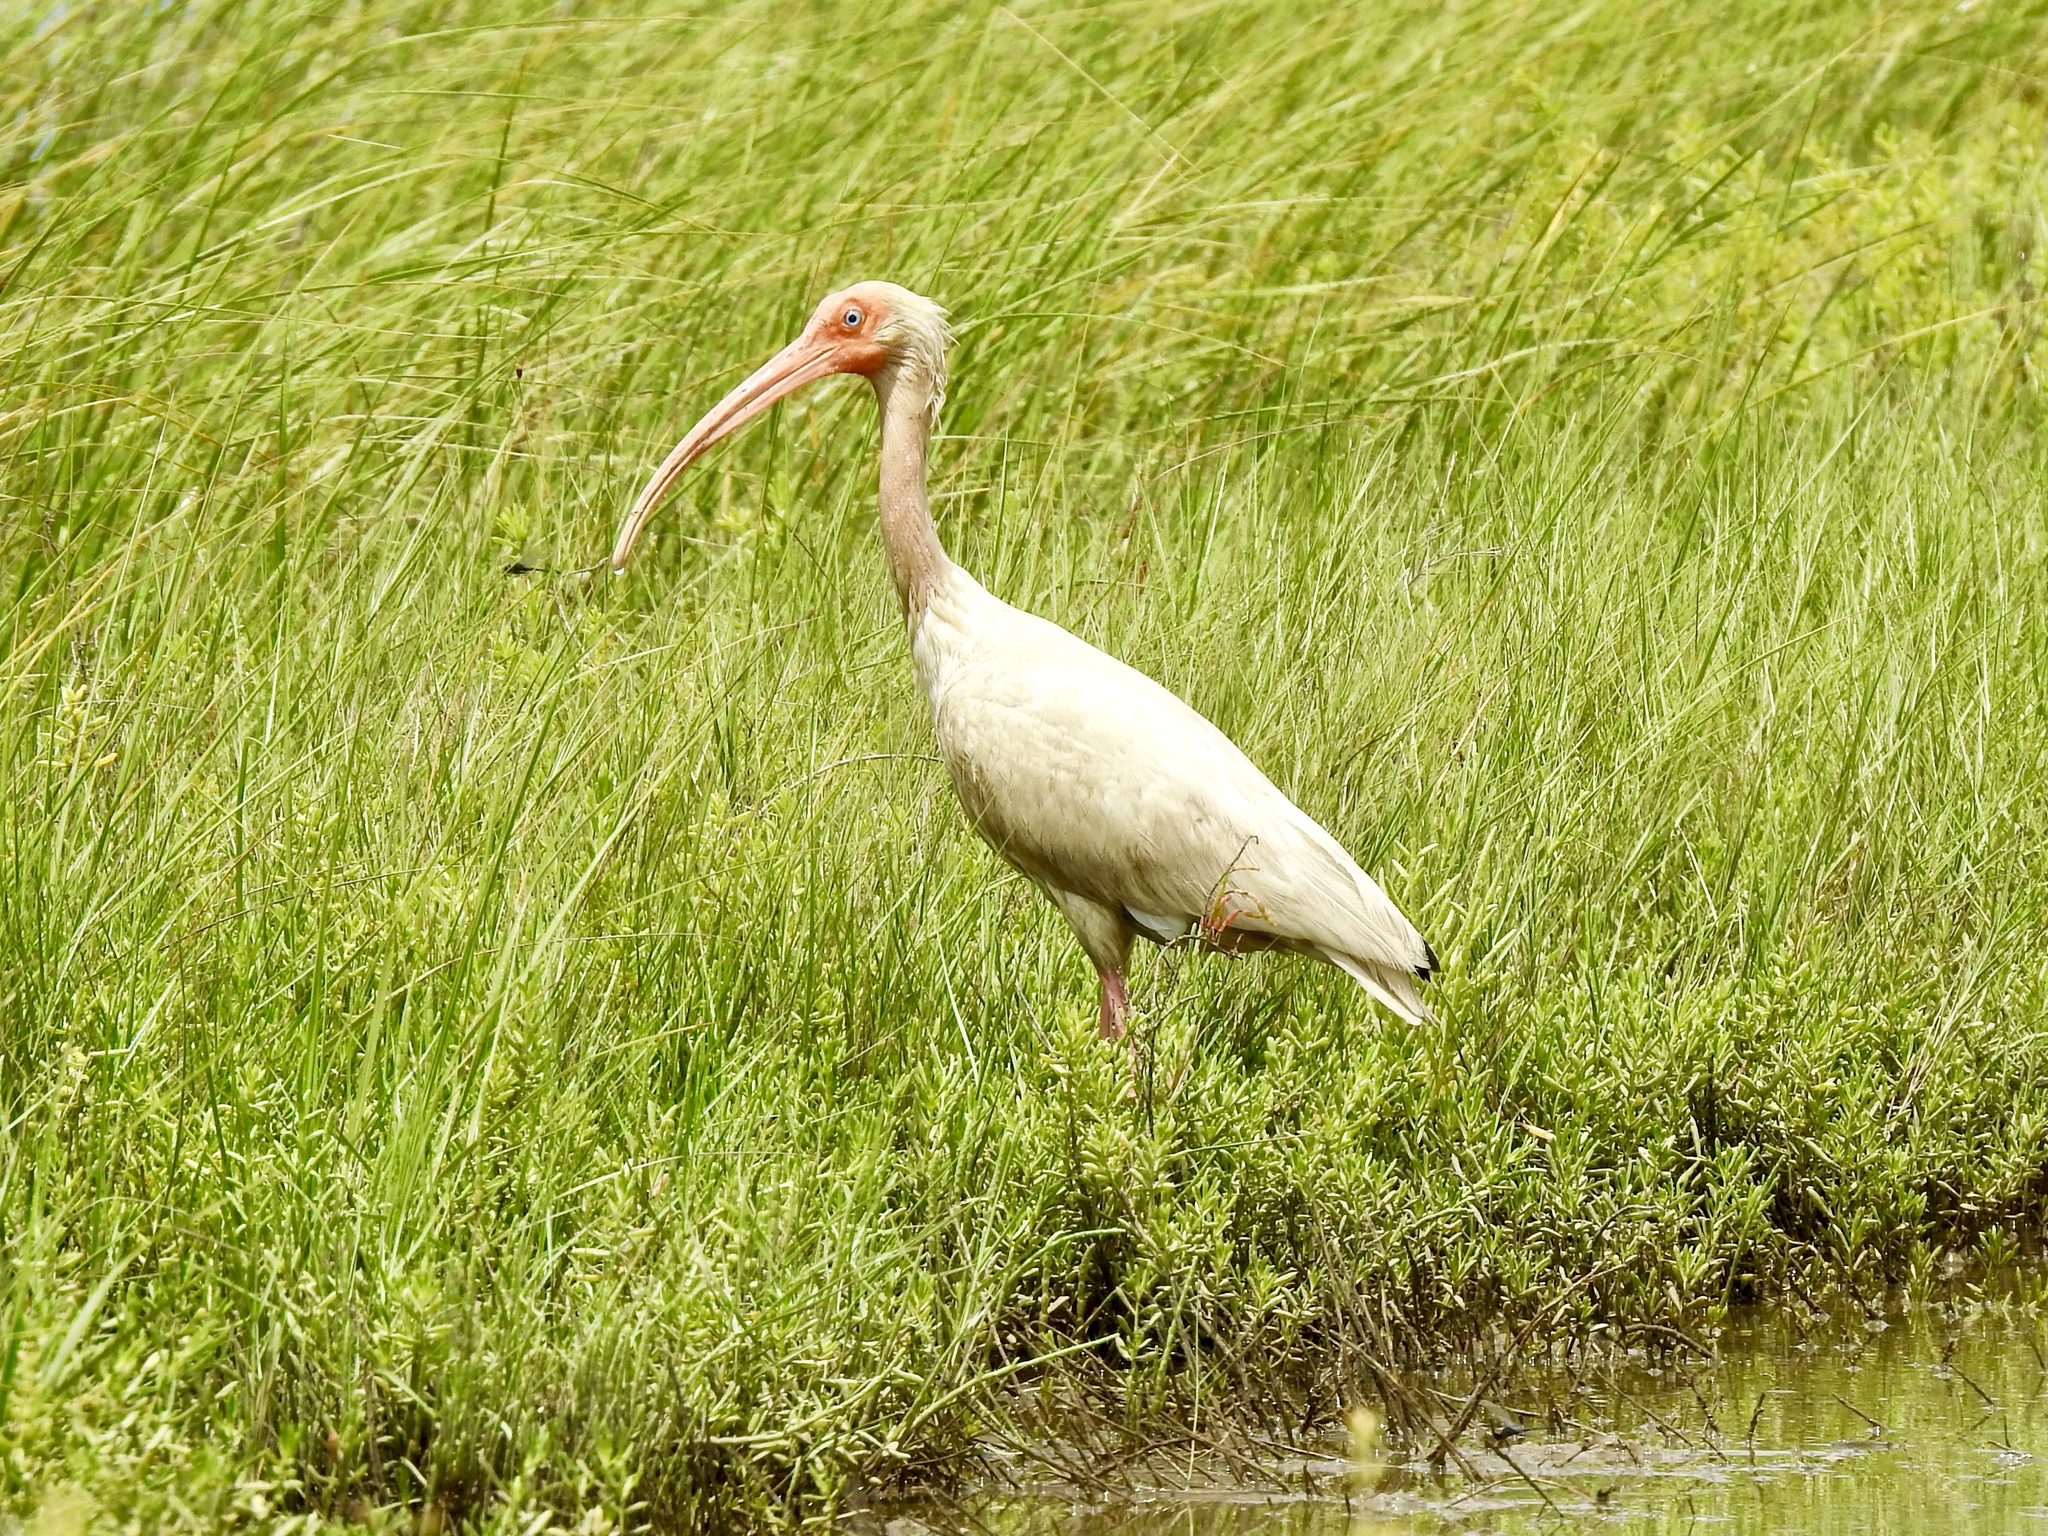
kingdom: Animalia
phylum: Chordata
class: Aves
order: Pelecaniformes
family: Threskiornithidae
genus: Eudocimus
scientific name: Eudocimus albus
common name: White ibis
